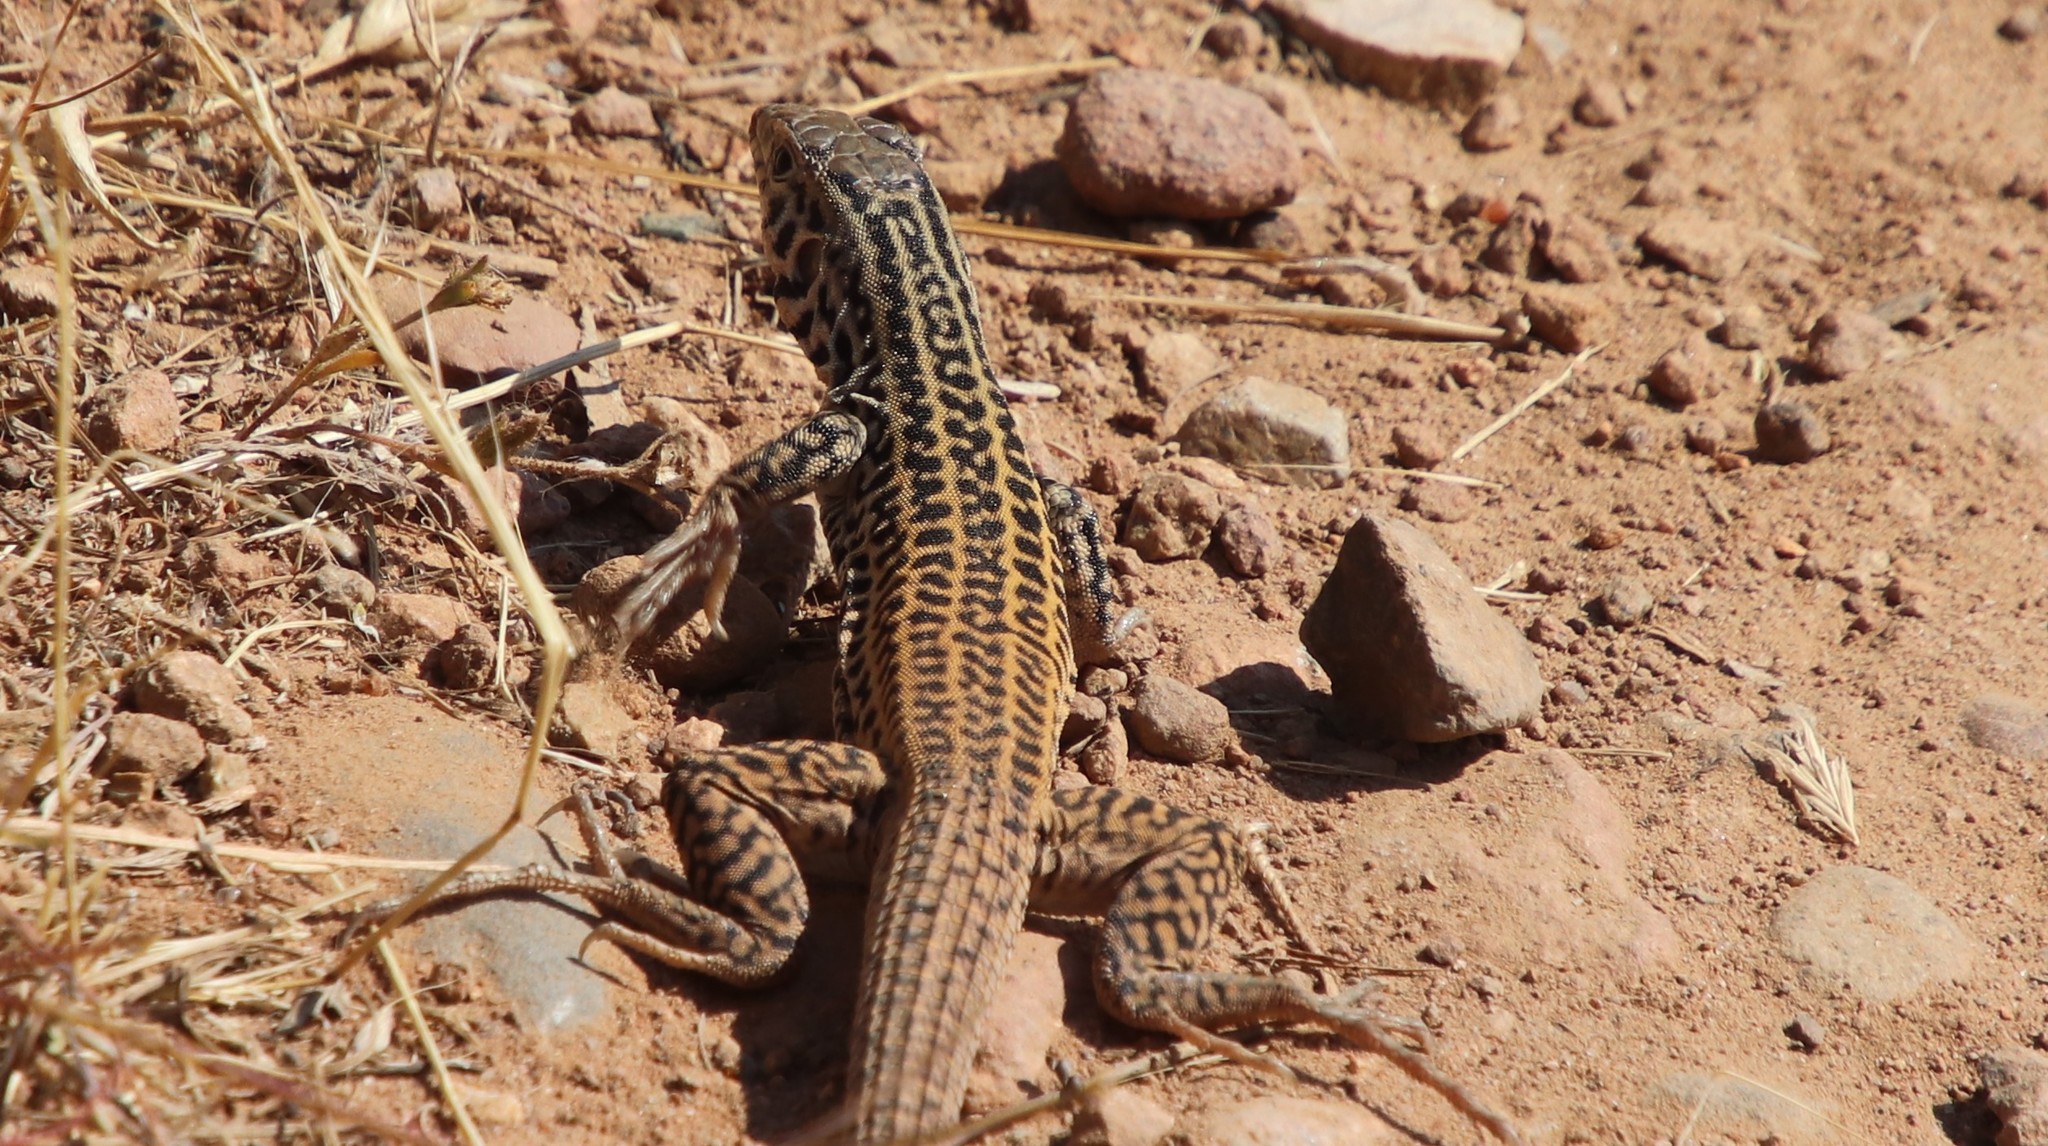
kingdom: Animalia
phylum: Chordata
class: Squamata
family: Teiidae
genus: Aspidoscelis
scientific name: Aspidoscelis tigris
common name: Tiger whiptail
